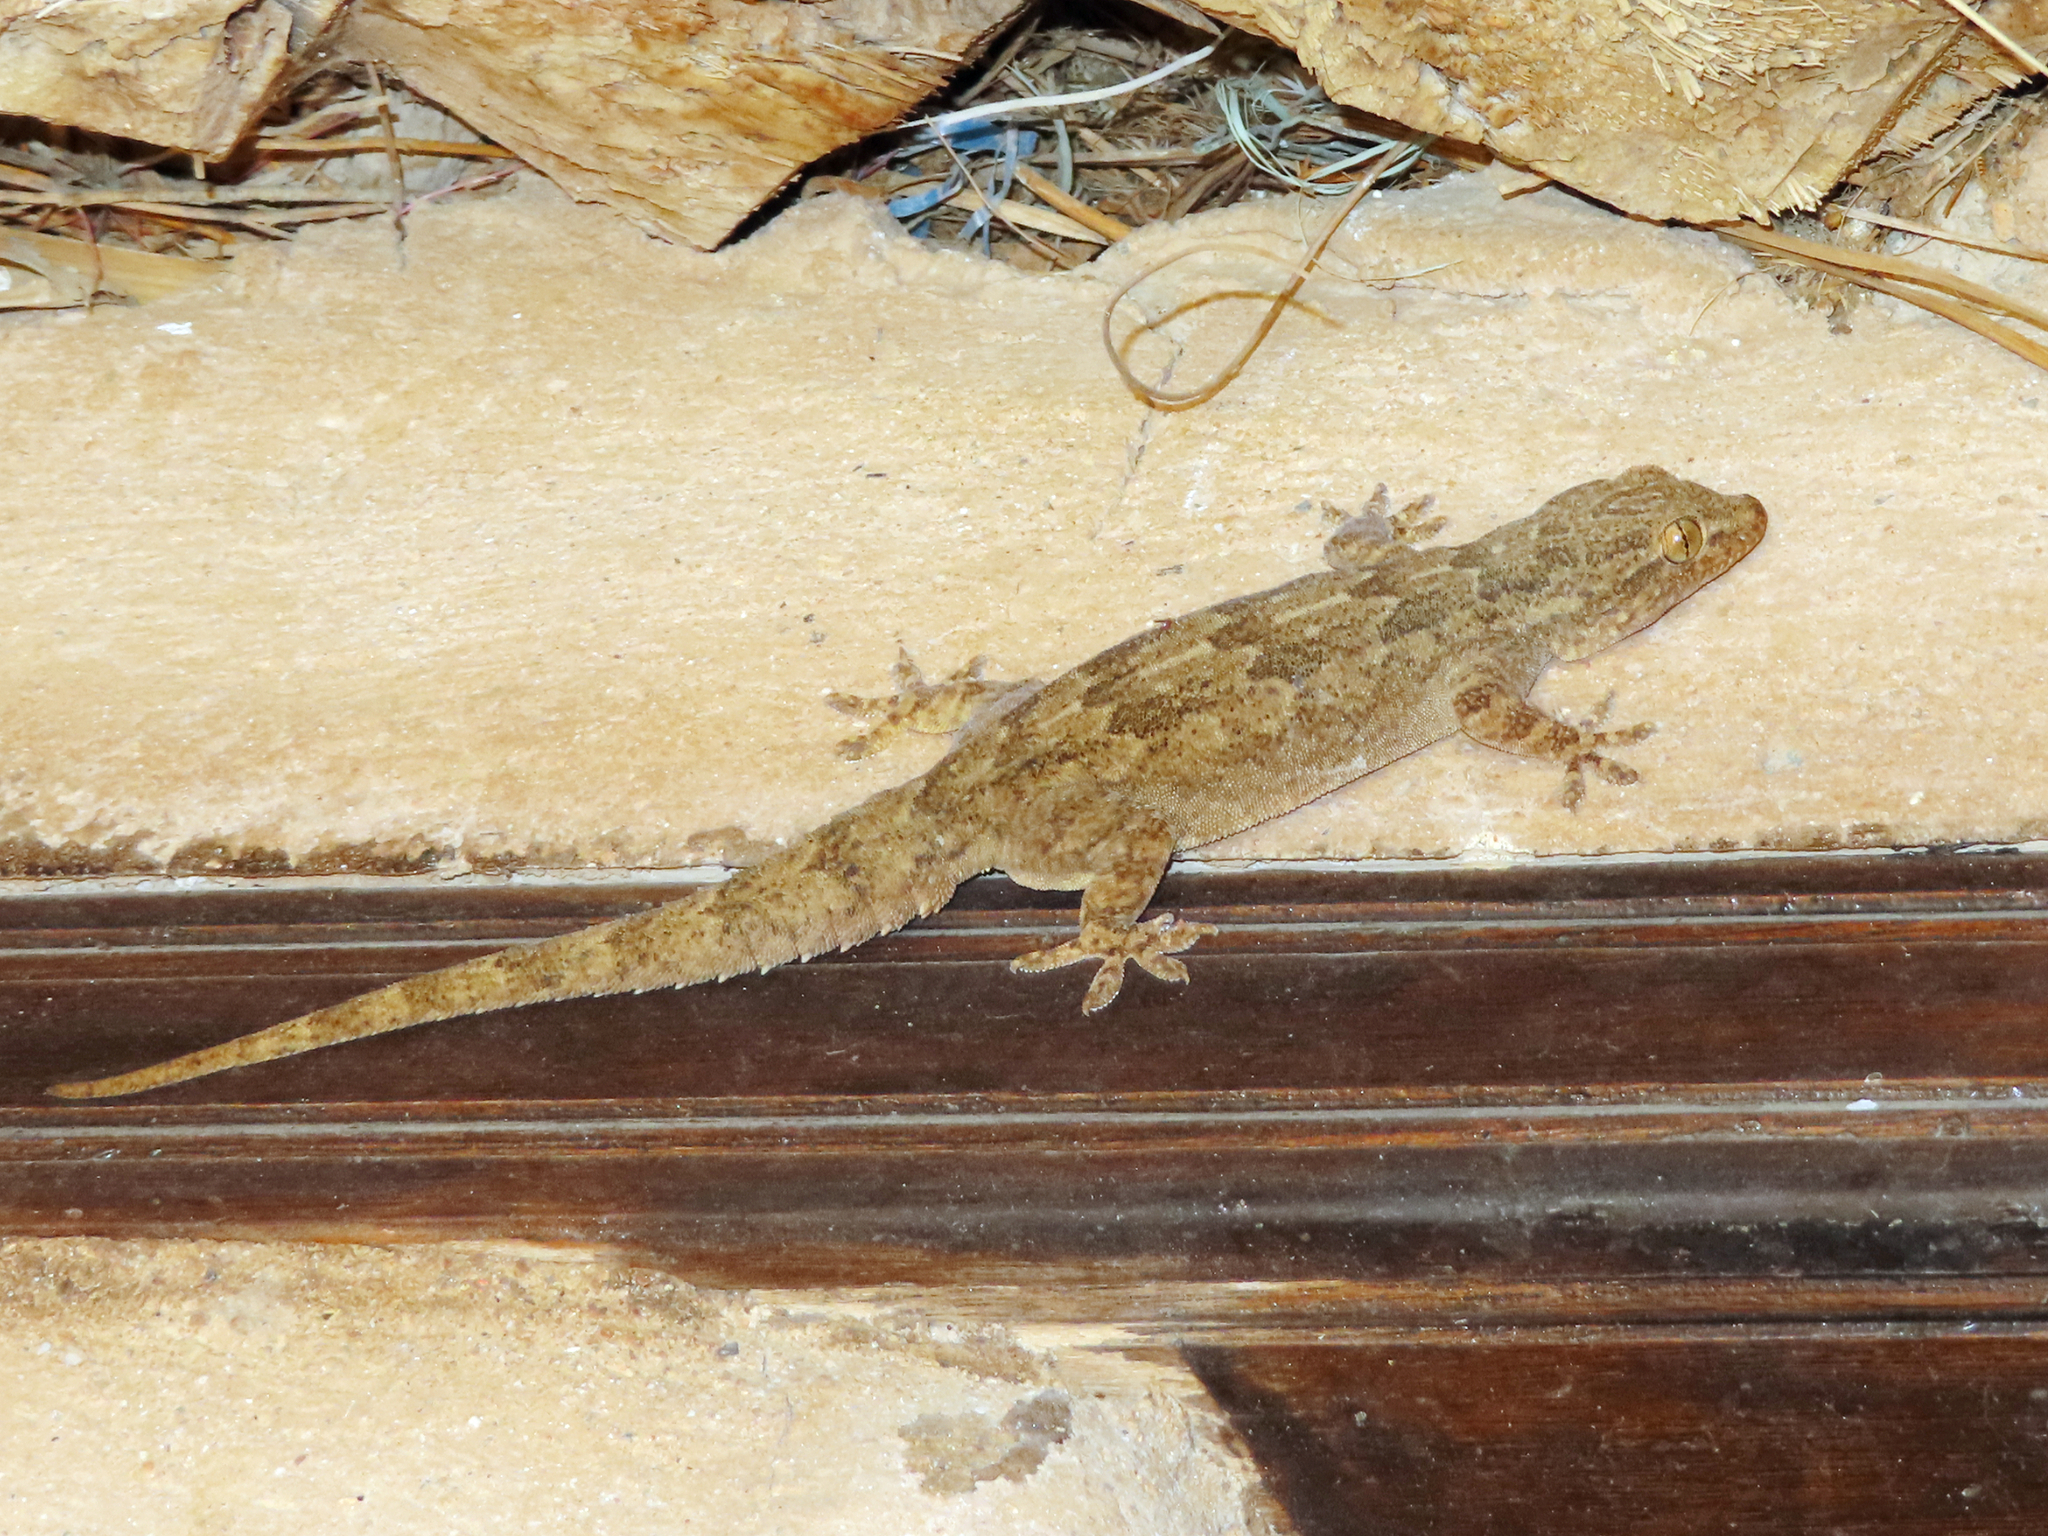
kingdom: Animalia
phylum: Chordata
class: Squamata
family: Gekkonidae
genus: Hemidactylus
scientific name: Hemidactylus flaviviridis
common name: Northern house gecko
